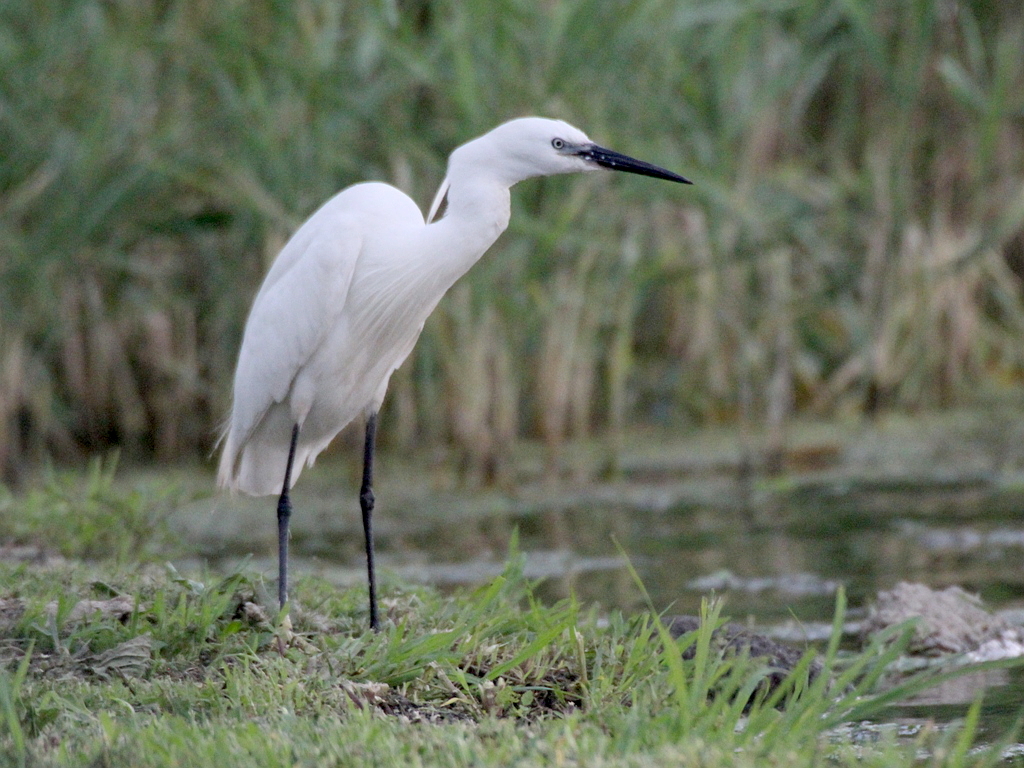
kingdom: Animalia
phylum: Chordata
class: Aves
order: Pelecaniformes
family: Ardeidae
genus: Egretta
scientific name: Egretta garzetta
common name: Little egret
